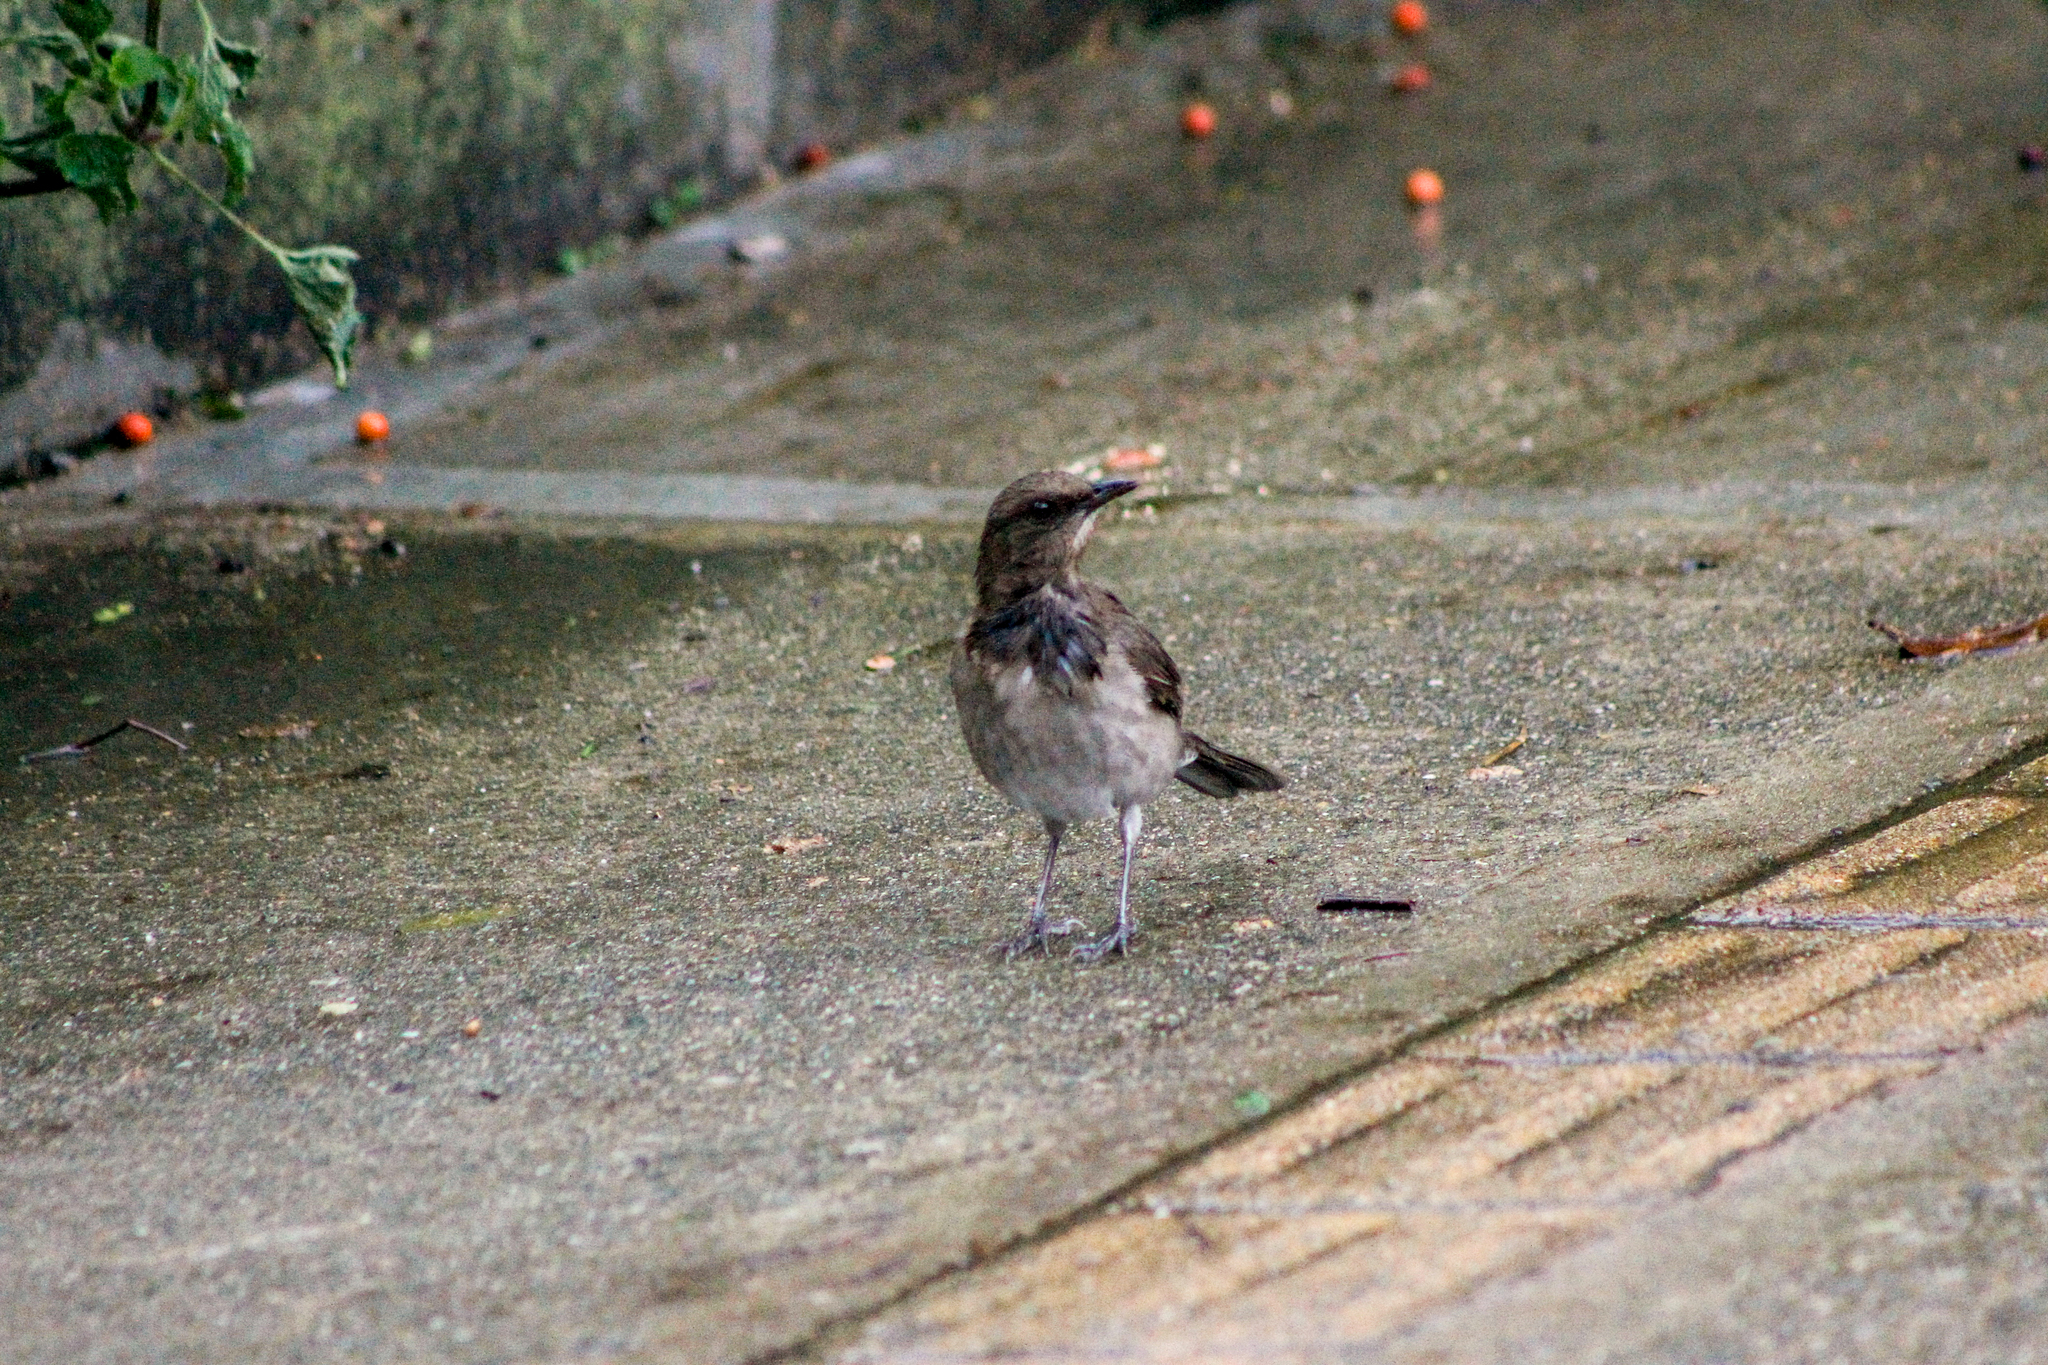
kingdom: Animalia
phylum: Chordata
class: Aves
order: Passeriformes
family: Turdidae
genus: Turdus
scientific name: Turdus ignobilis
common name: Black-billed thrush
